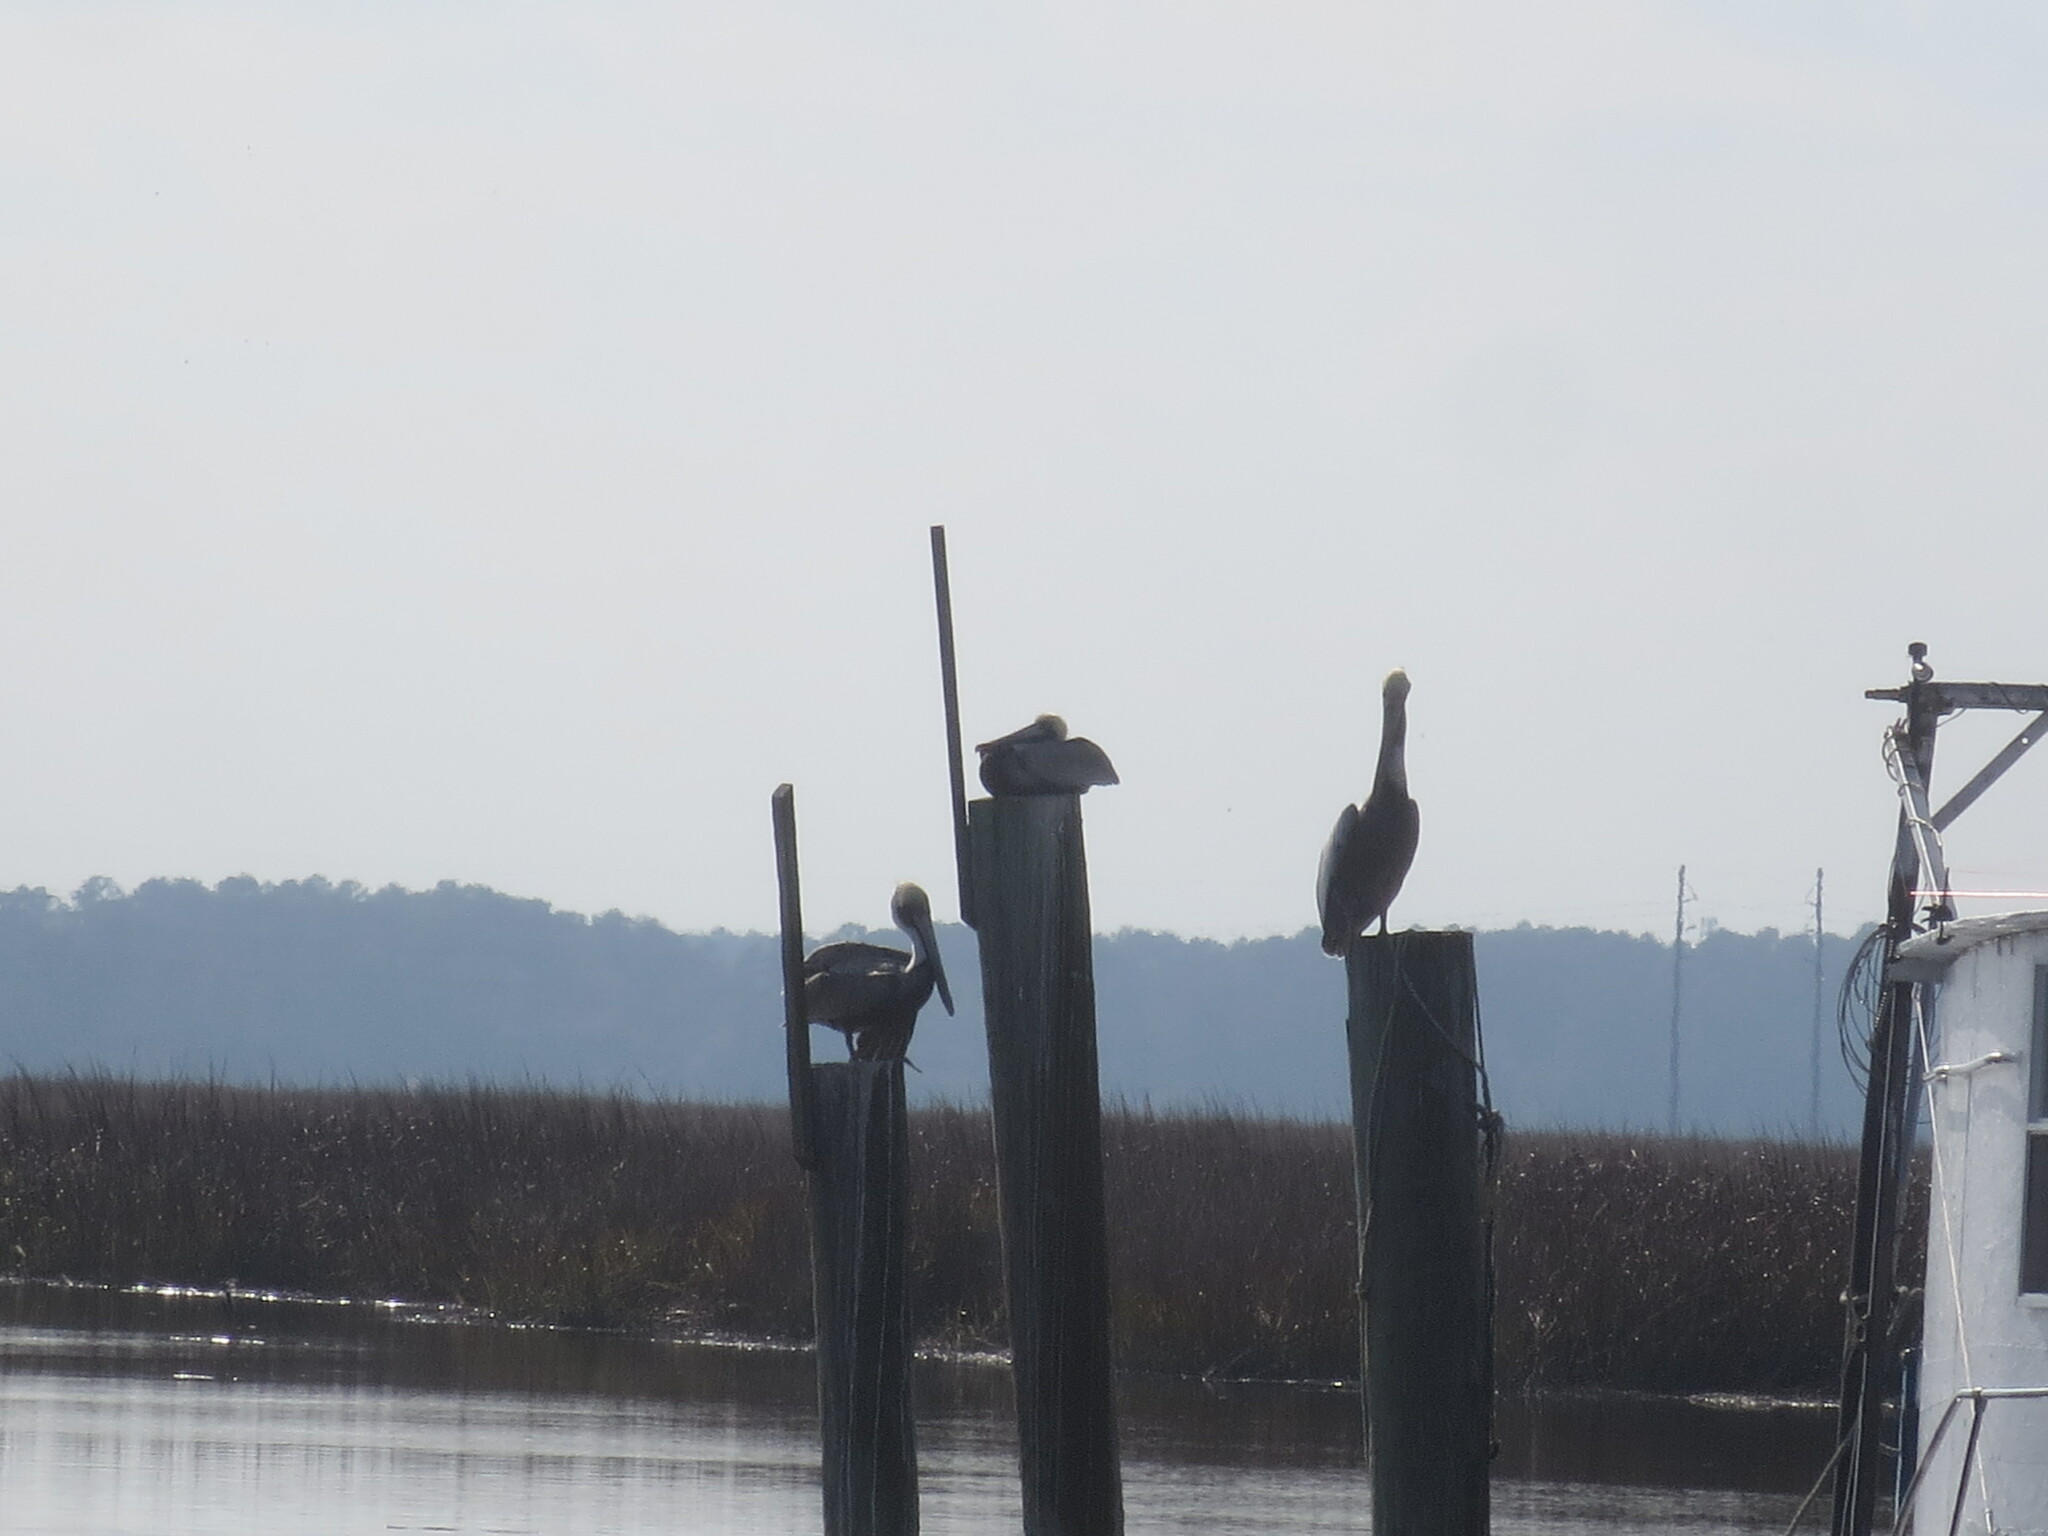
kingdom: Animalia
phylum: Chordata
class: Aves
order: Pelecaniformes
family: Pelecanidae
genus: Pelecanus
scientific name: Pelecanus occidentalis
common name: Brown pelican
